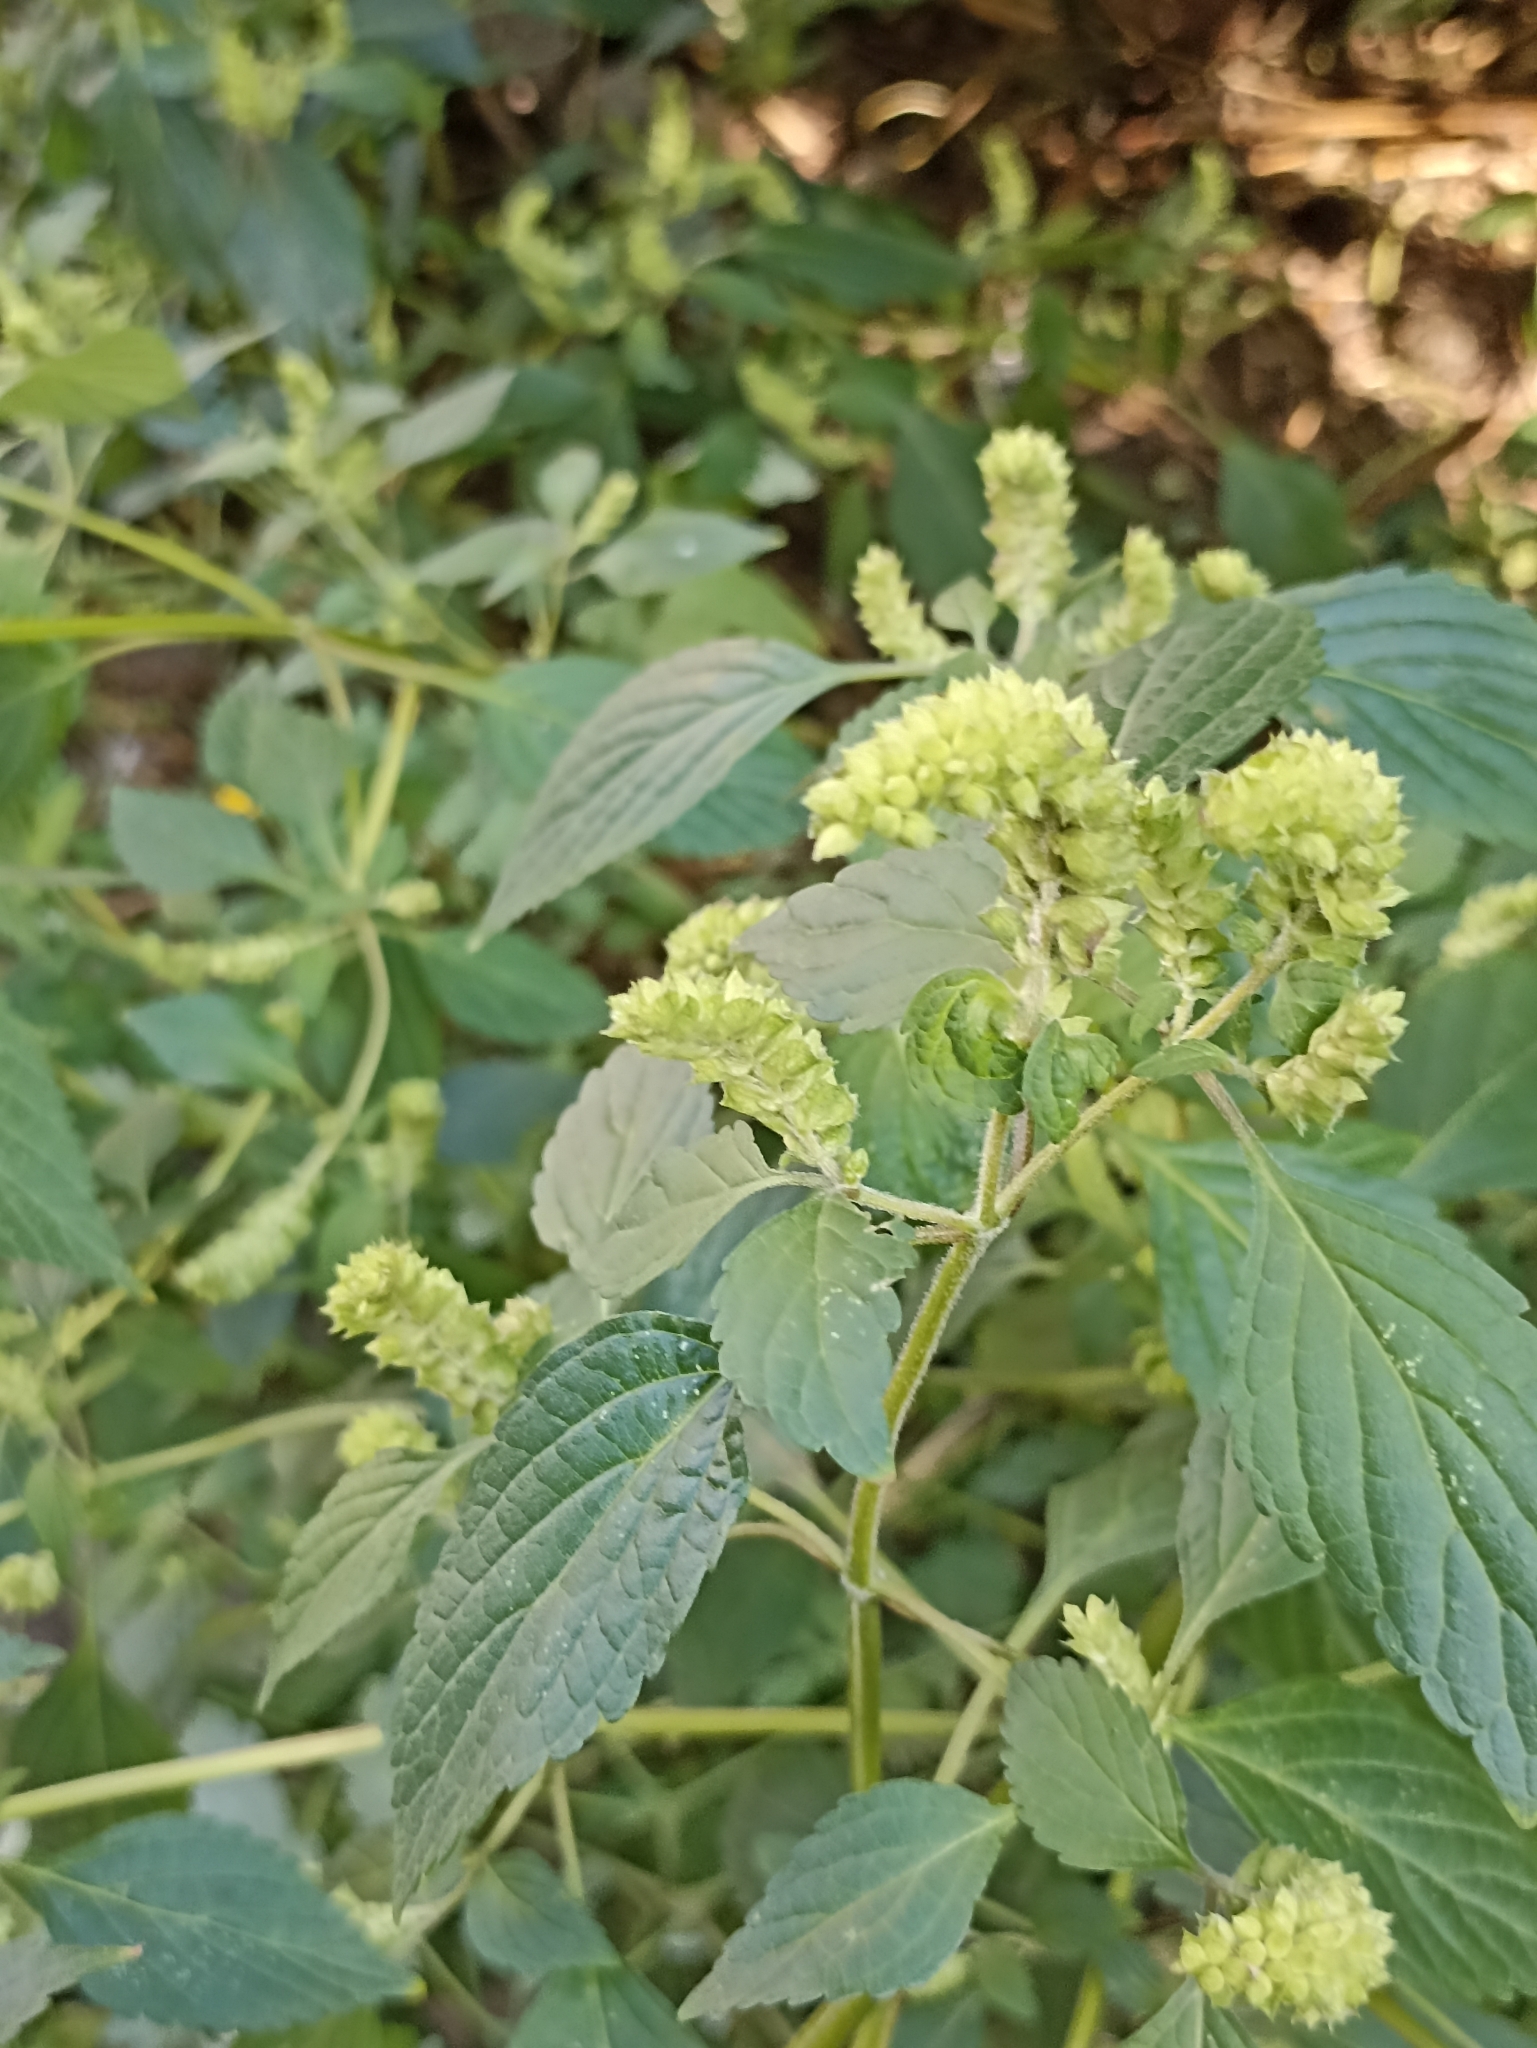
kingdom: Plantae
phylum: Tracheophyta
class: Magnoliopsida
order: Lamiales
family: Lamiaceae
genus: Elsholtzia
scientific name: Elsholtzia ciliata
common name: Ciliate elsholtzia
